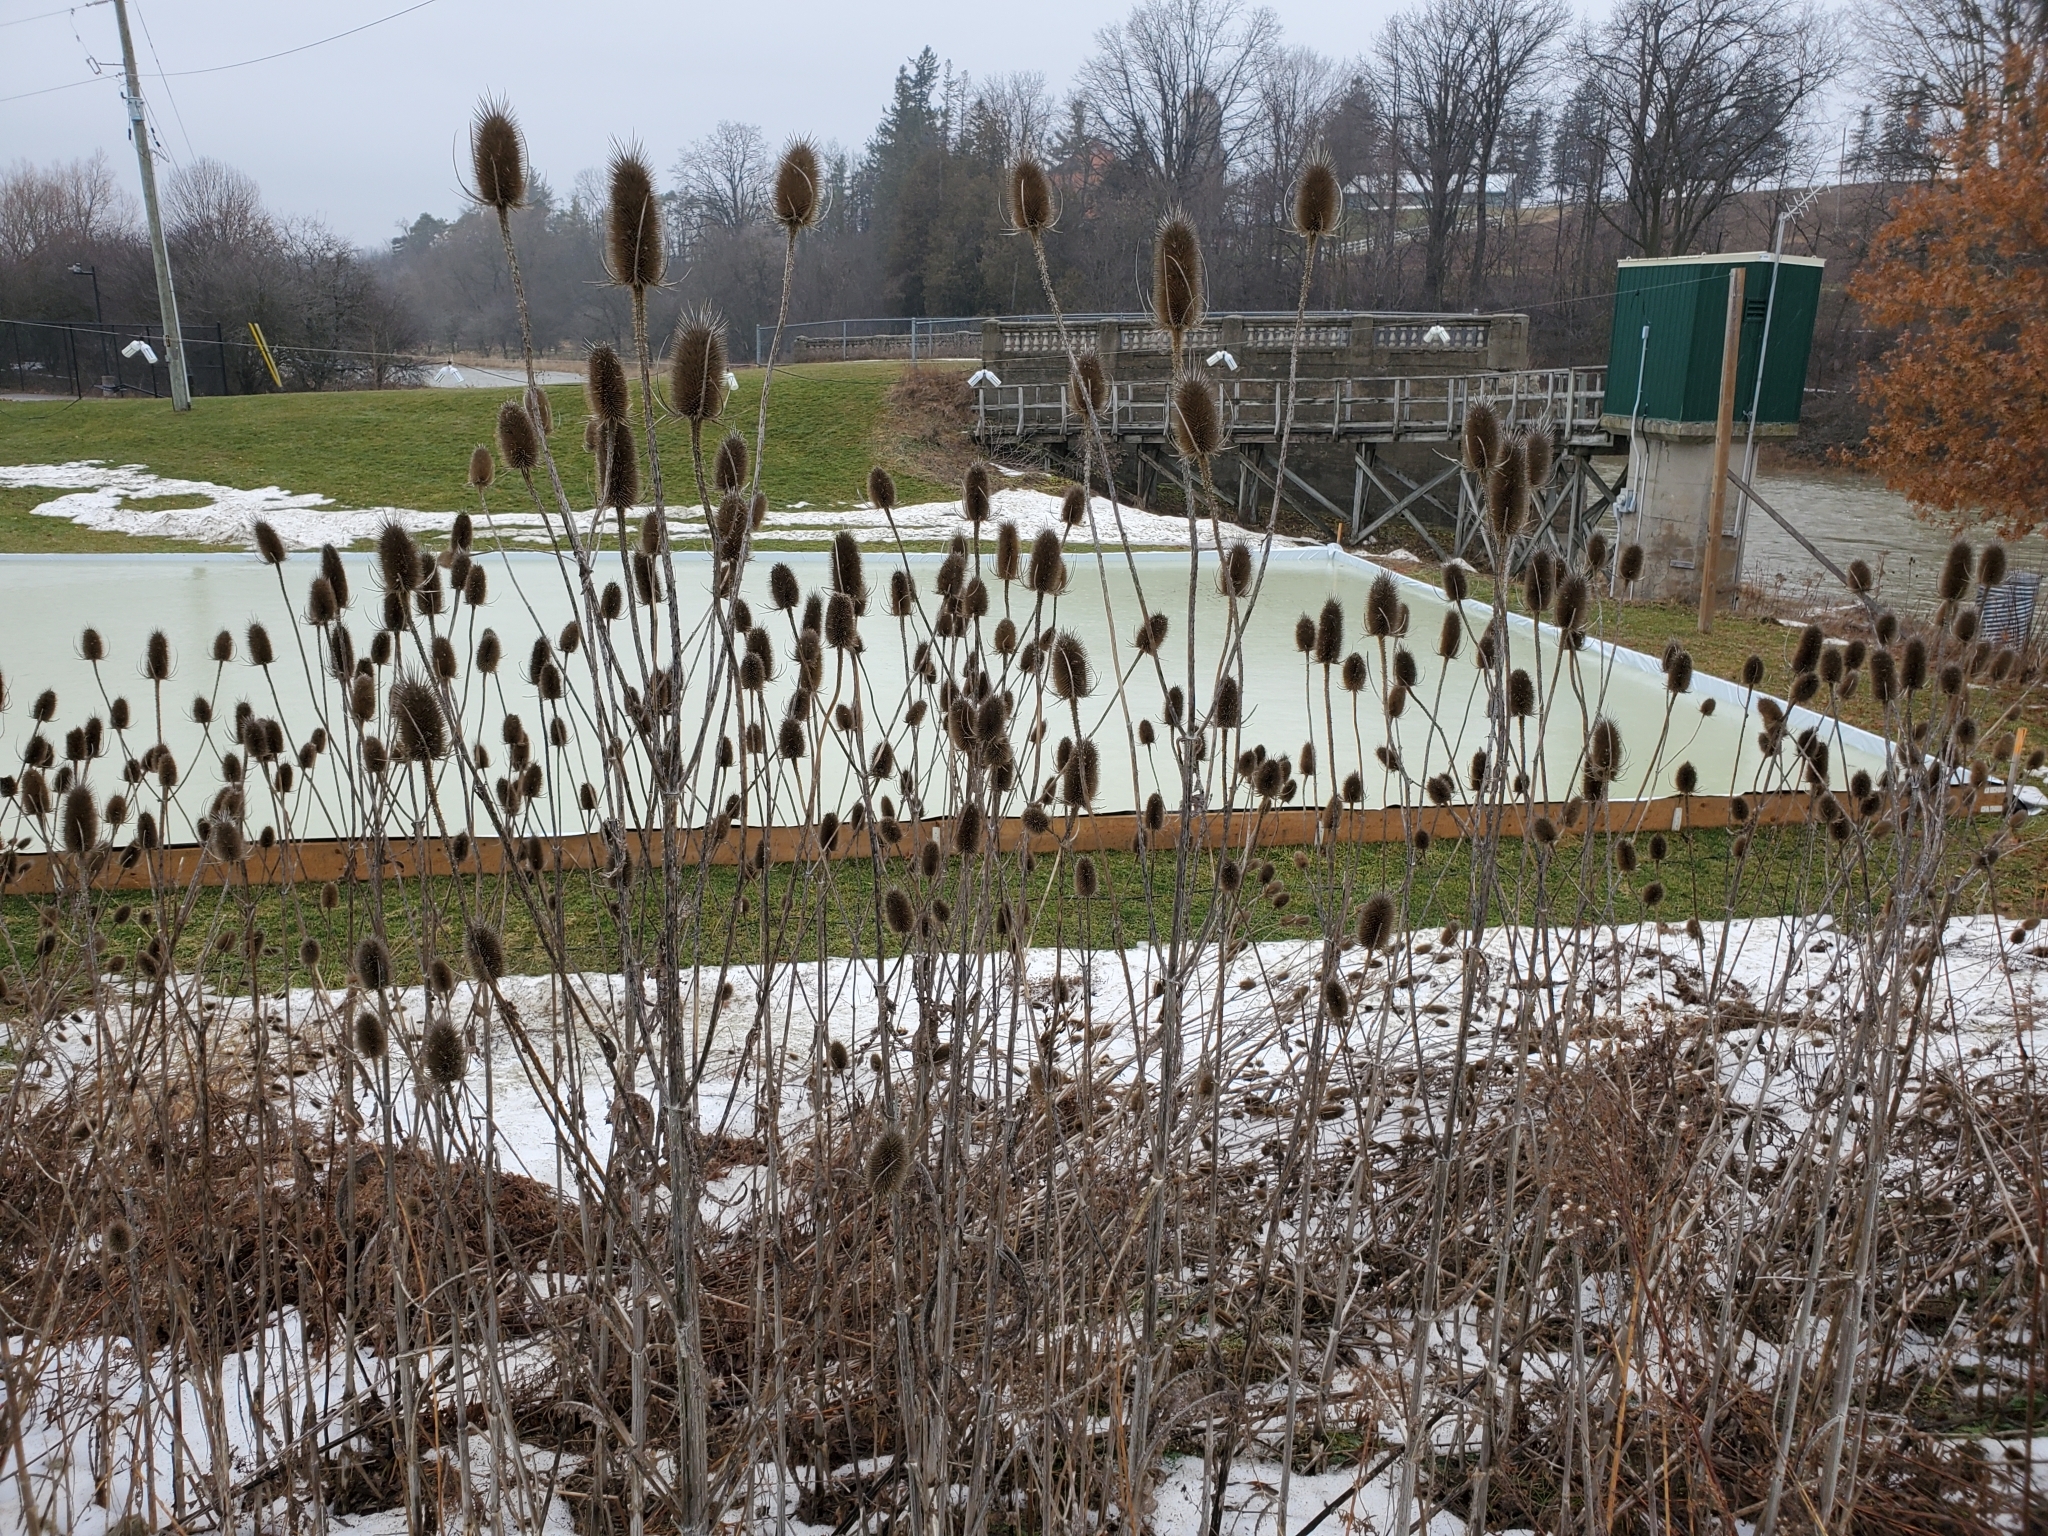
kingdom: Plantae
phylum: Tracheophyta
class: Magnoliopsida
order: Dipsacales
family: Caprifoliaceae
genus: Dipsacus
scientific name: Dipsacus fullonum
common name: Teasel
